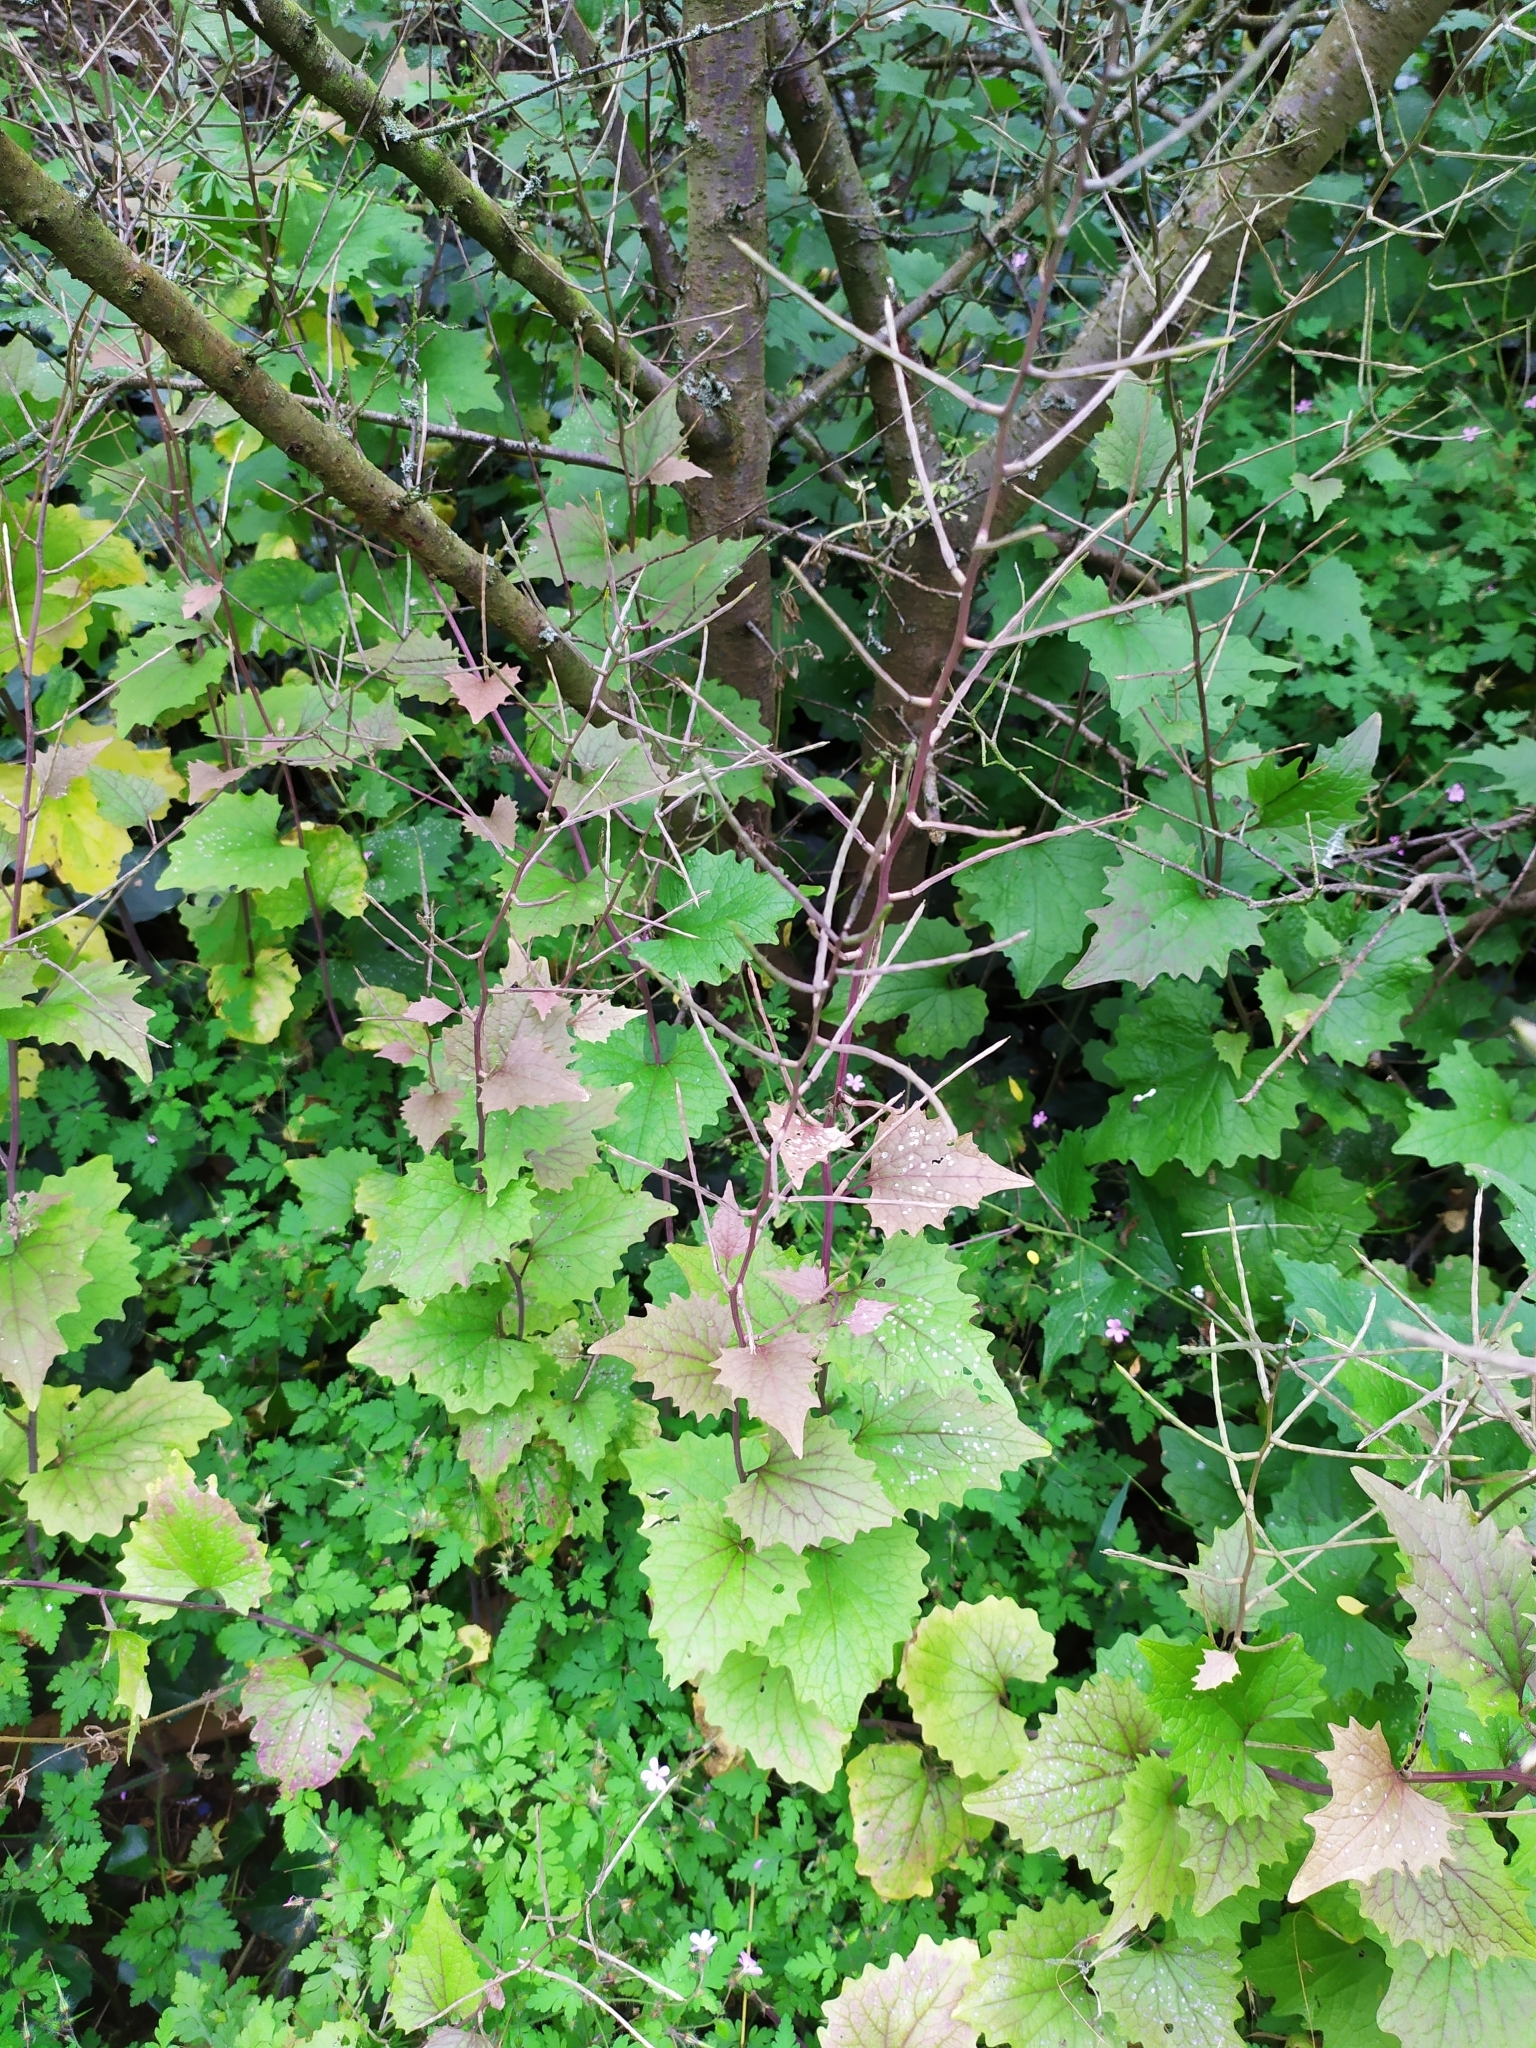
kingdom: Plantae
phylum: Tracheophyta
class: Magnoliopsida
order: Brassicales
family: Brassicaceae
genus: Alliaria
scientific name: Alliaria petiolata
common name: Garlic mustard
